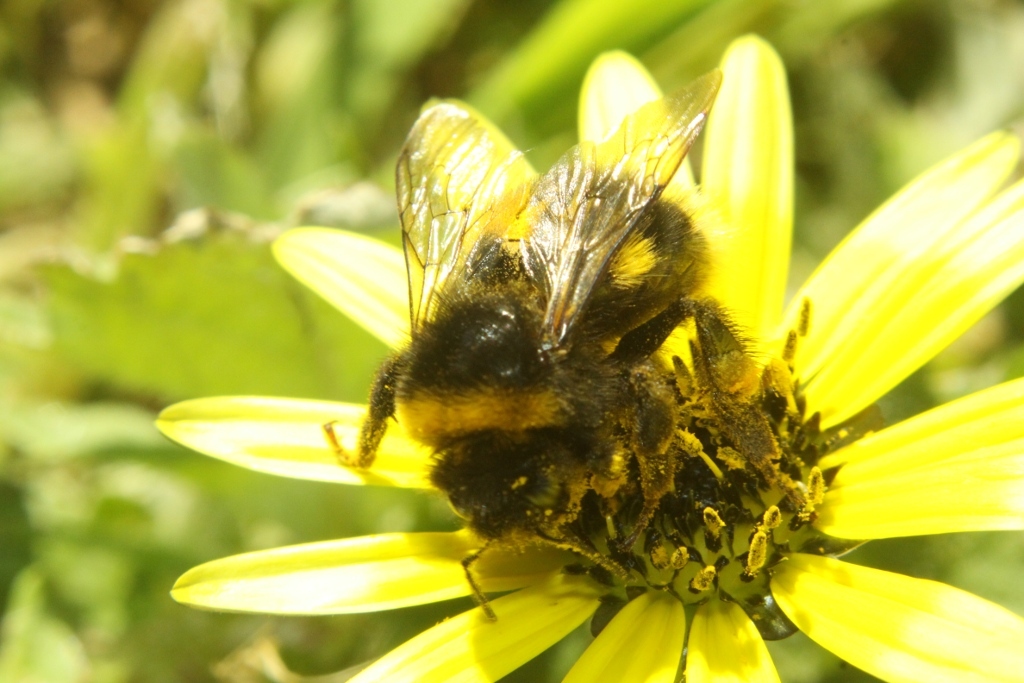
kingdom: Animalia
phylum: Arthropoda
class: Insecta
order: Hymenoptera
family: Apidae
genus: Bombus
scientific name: Bombus terrestris
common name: Buff-tailed bumblebee
